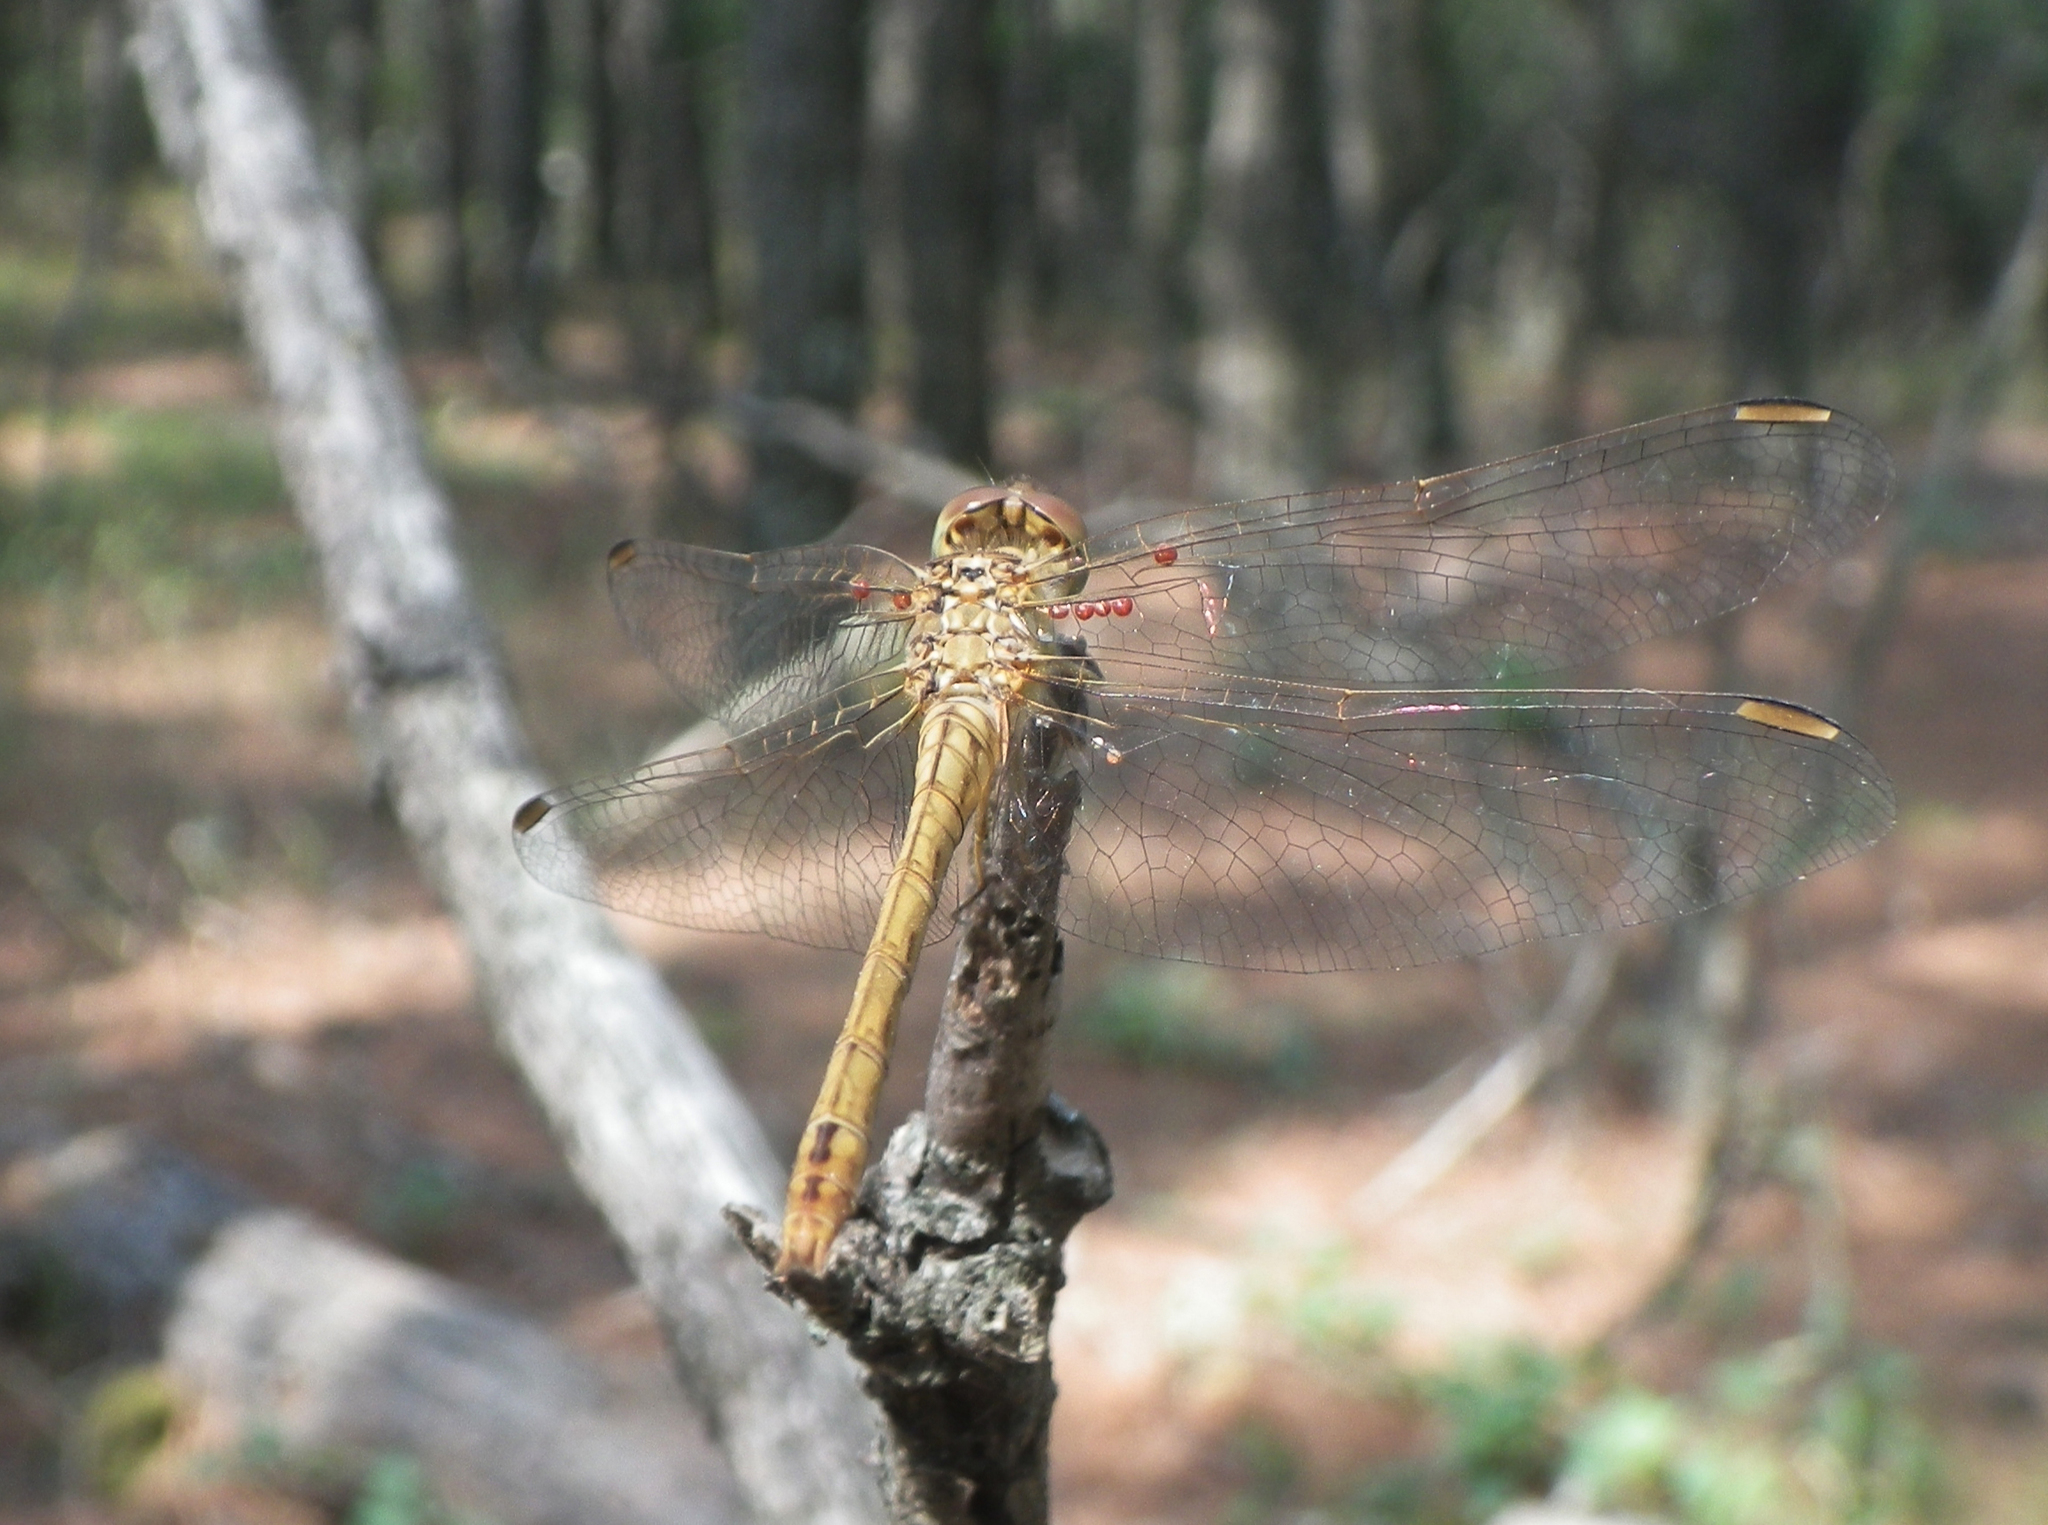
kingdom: Animalia
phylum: Arthropoda
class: Insecta
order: Odonata
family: Libellulidae
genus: Sympetrum
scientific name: Sympetrum meridionale
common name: Southern darter
